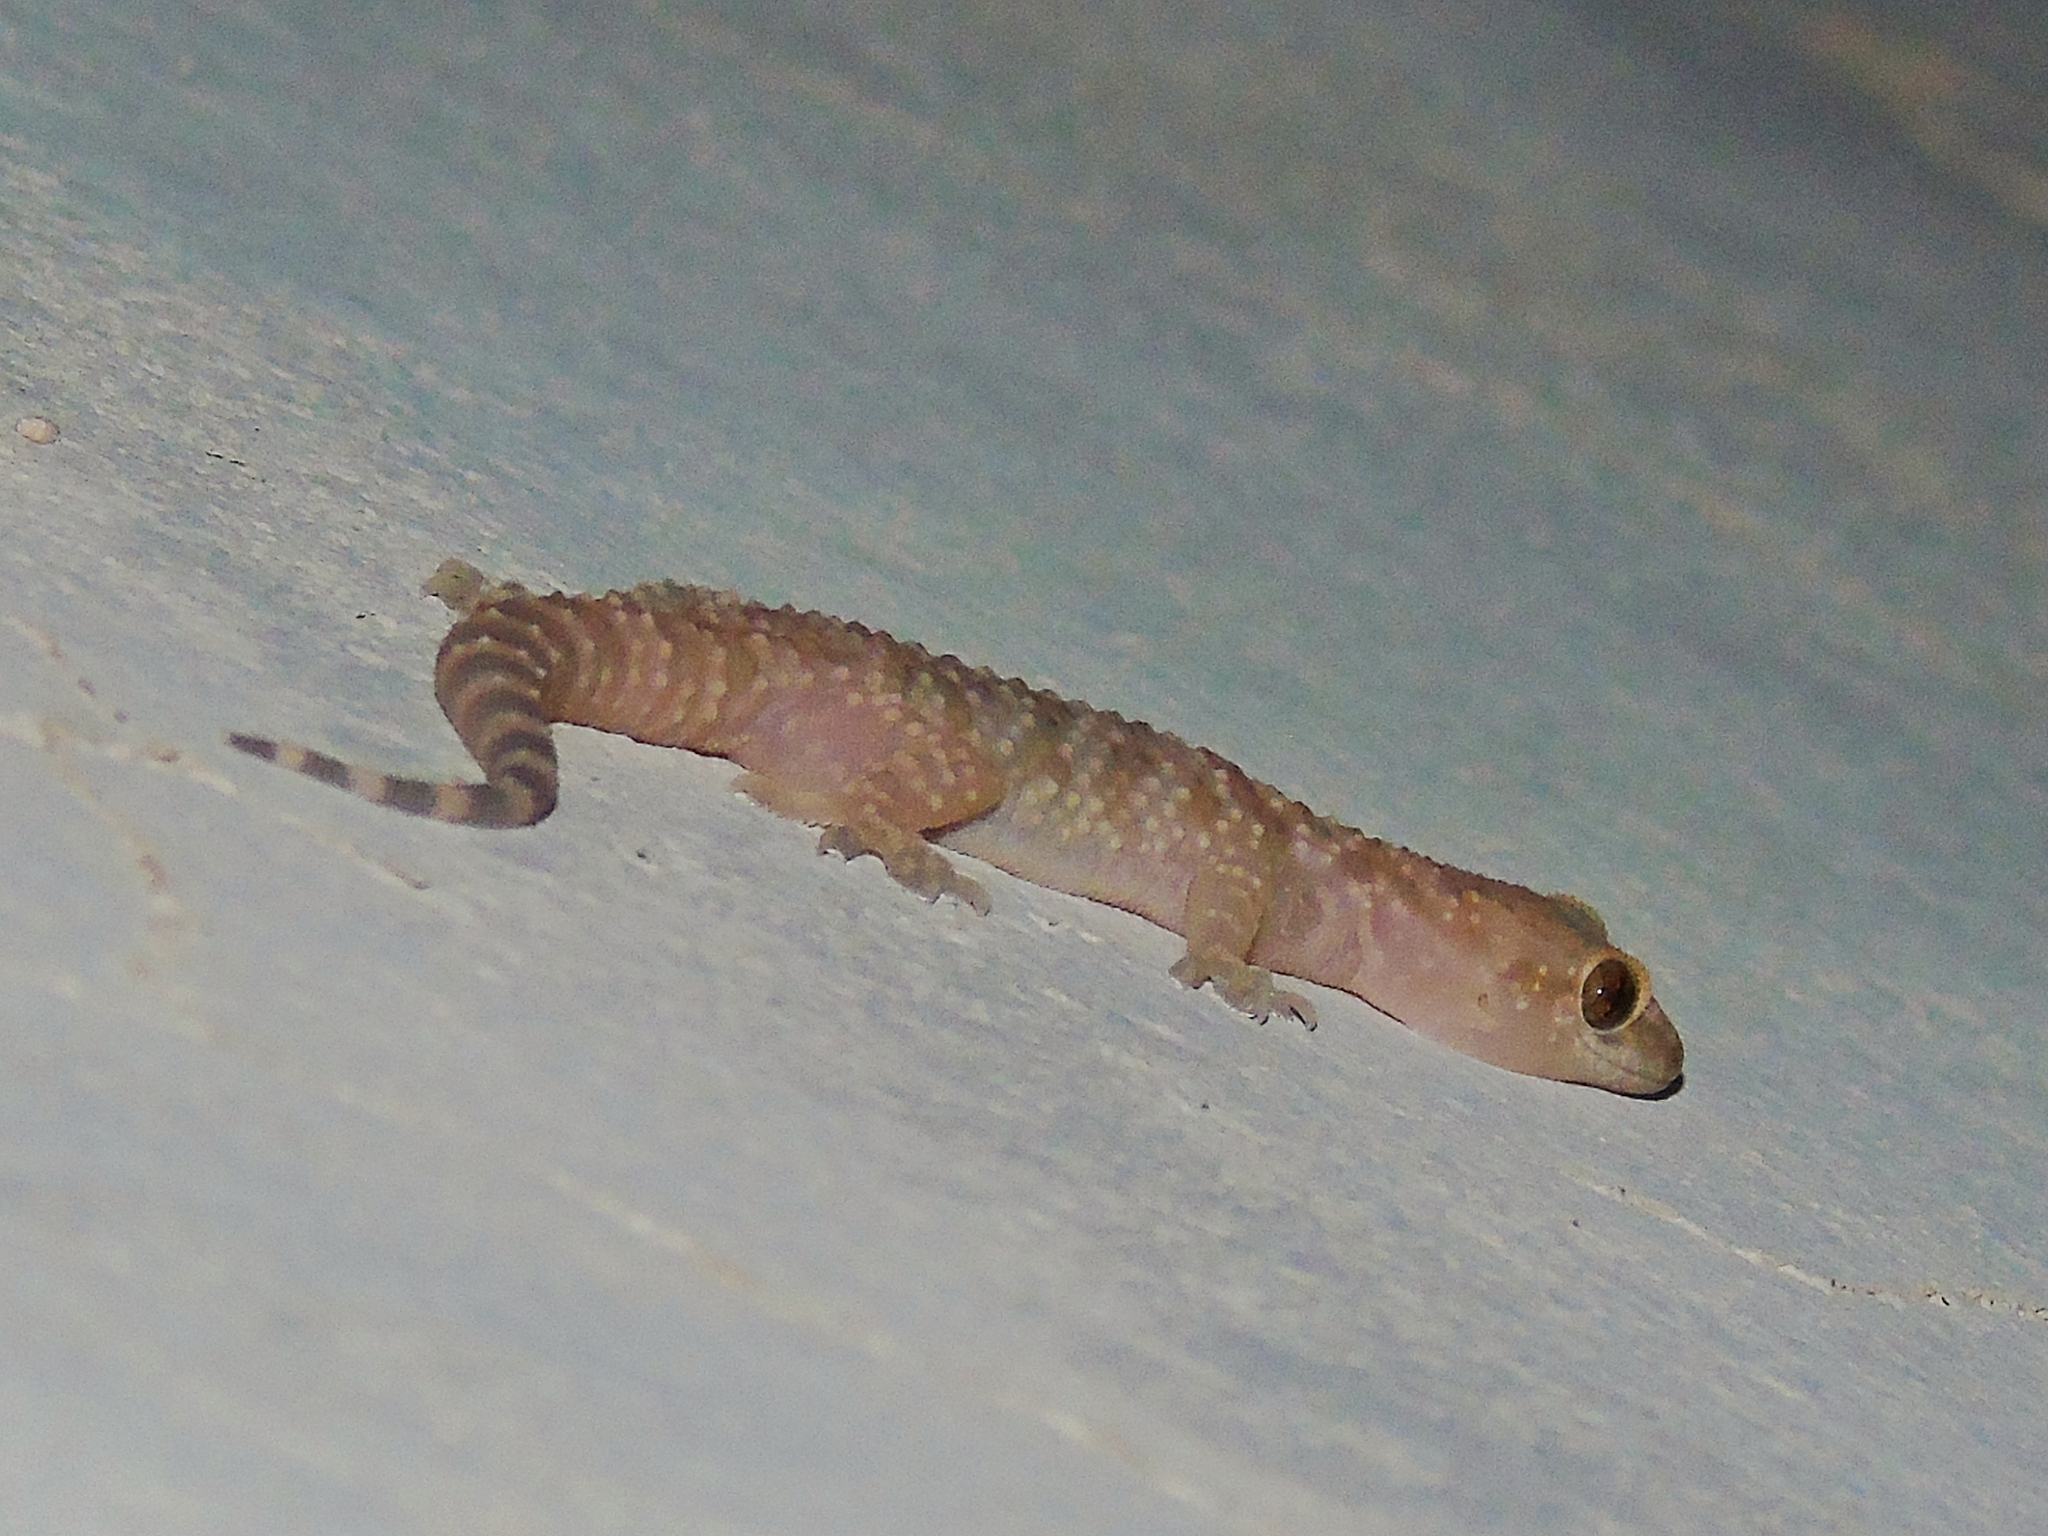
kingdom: Animalia
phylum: Chordata
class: Squamata
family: Gekkonidae
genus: Hemidactylus
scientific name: Hemidactylus turcicus
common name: Turkish gecko
